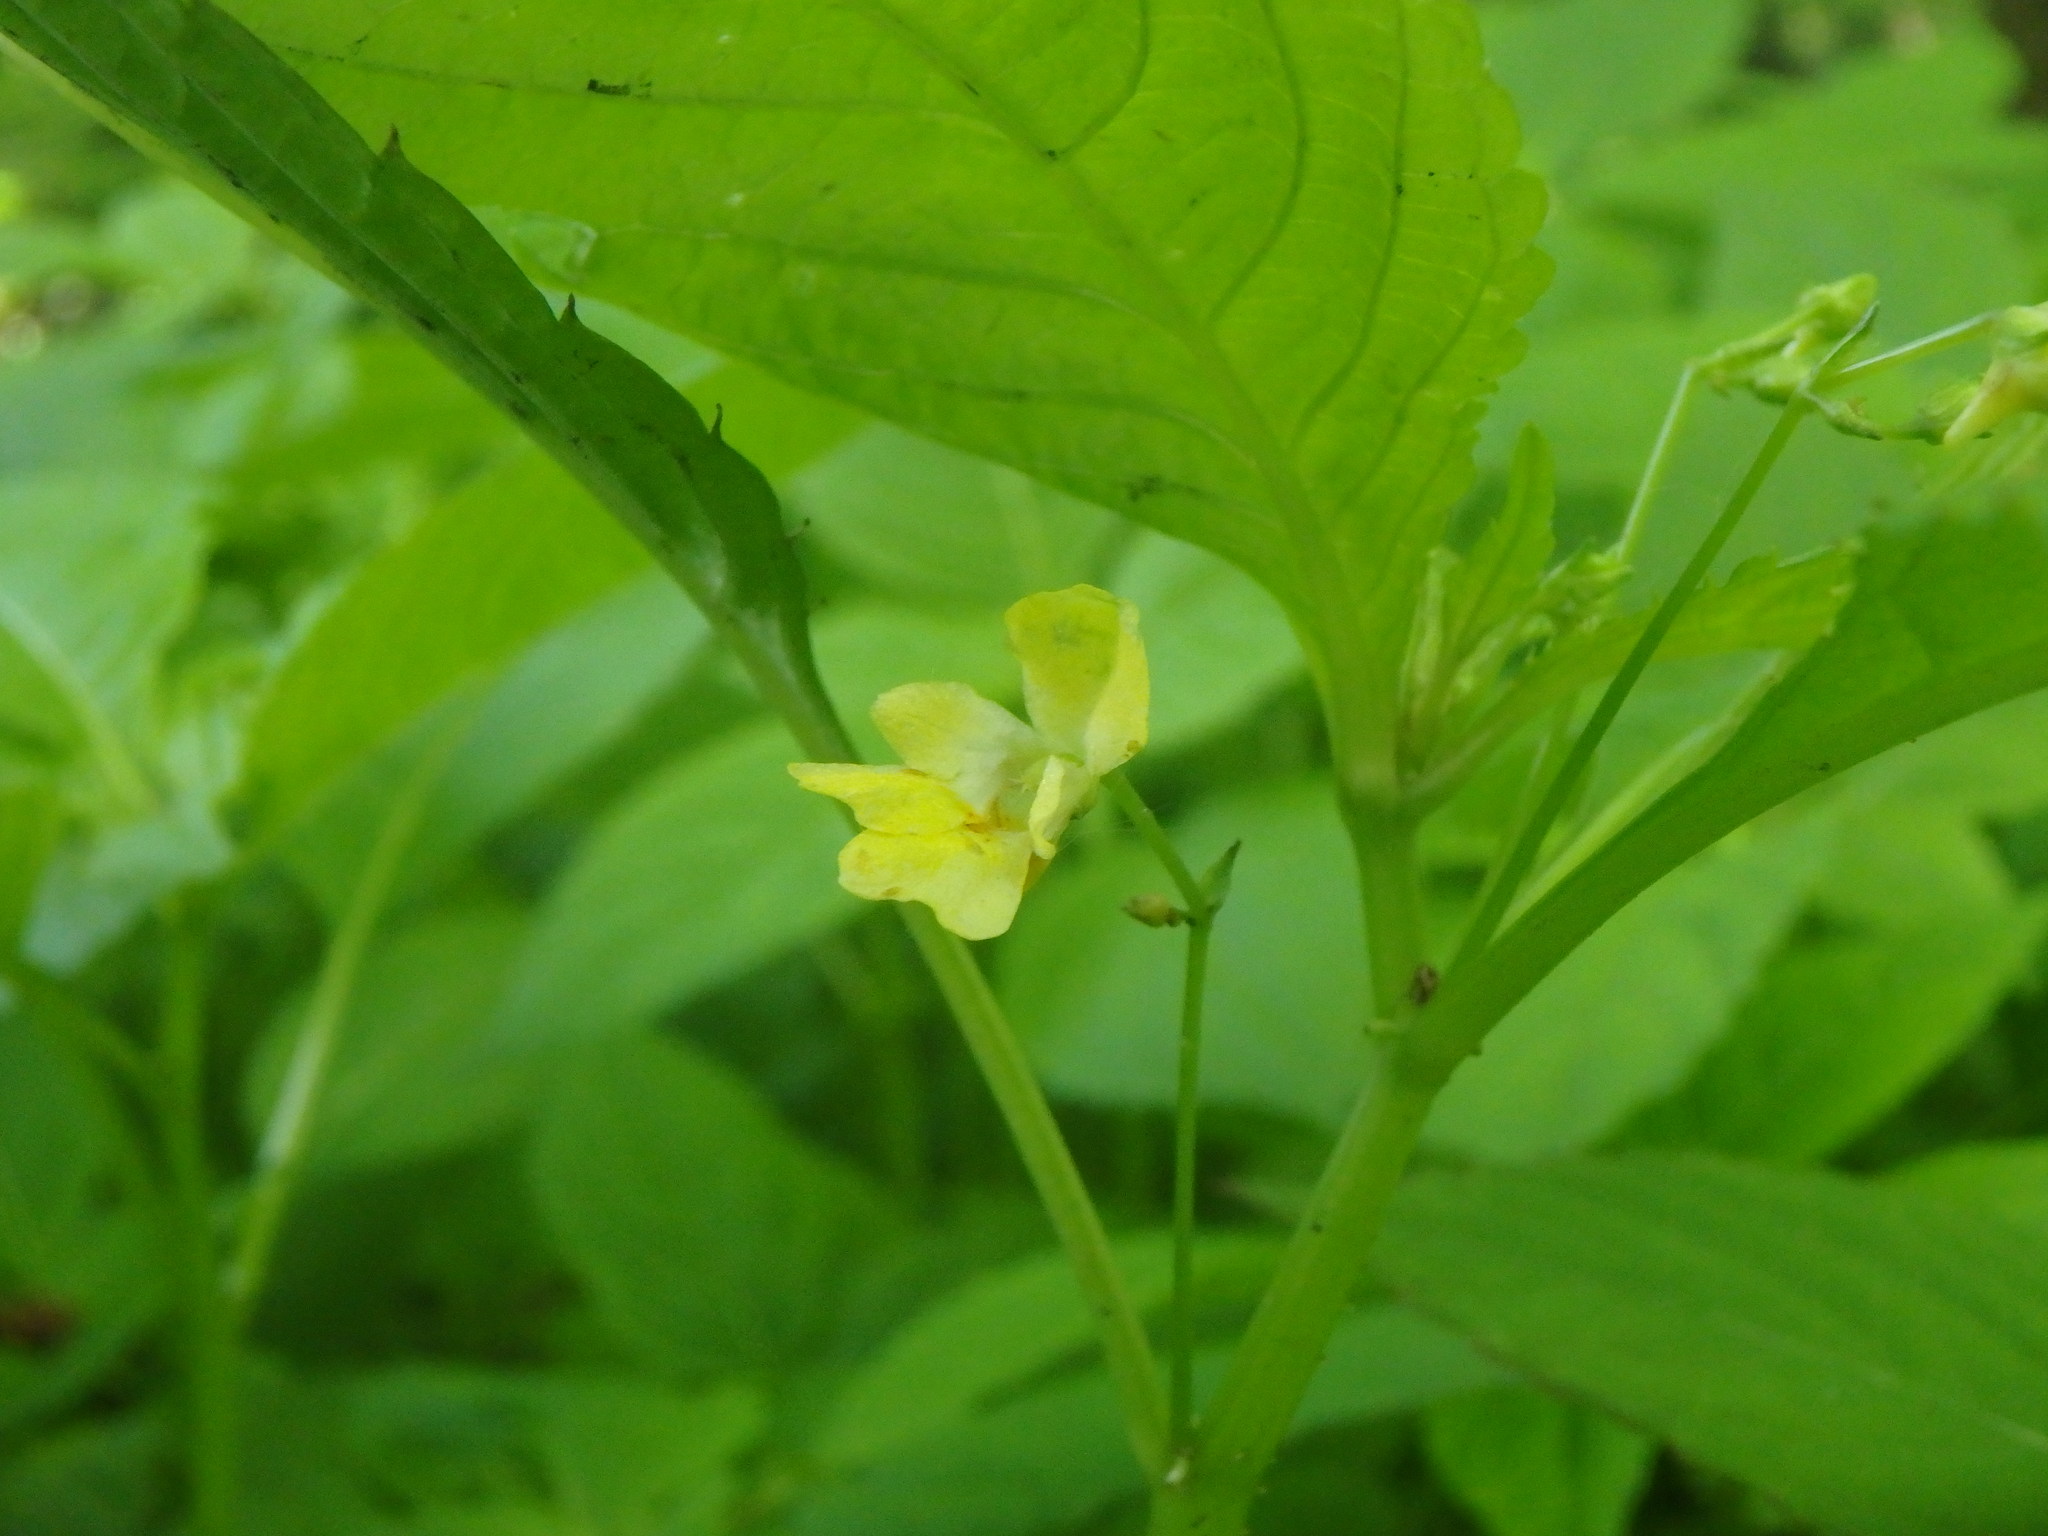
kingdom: Plantae
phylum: Tracheophyta
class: Magnoliopsida
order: Ericales
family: Balsaminaceae
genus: Impatiens
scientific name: Impatiens parviflora
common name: Small balsam
